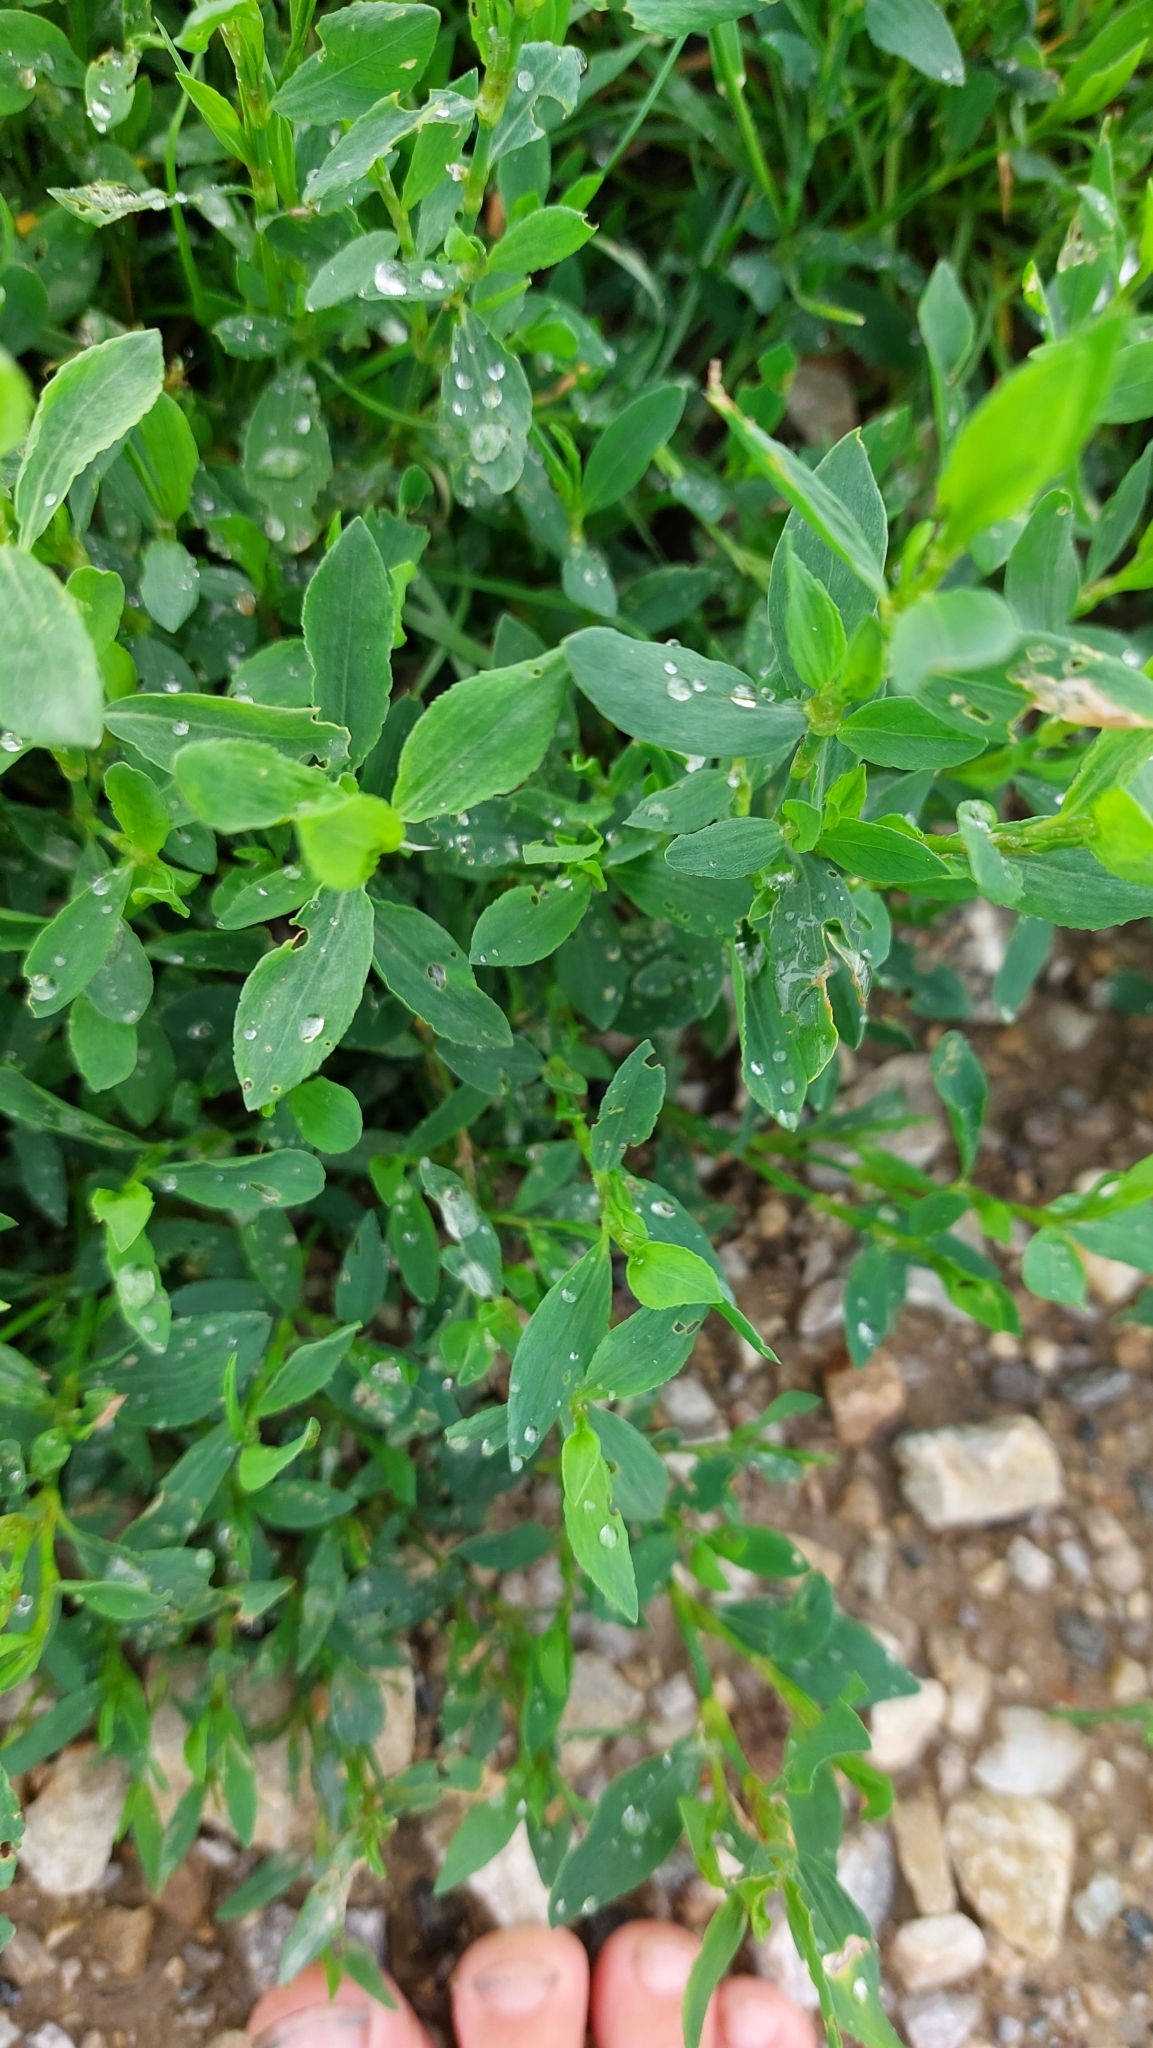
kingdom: Plantae
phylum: Tracheophyta
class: Magnoliopsida
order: Caryophyllales
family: Polygonaceae
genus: Polygonum
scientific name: Polygonum aviculare
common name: Prostrate knotweed
